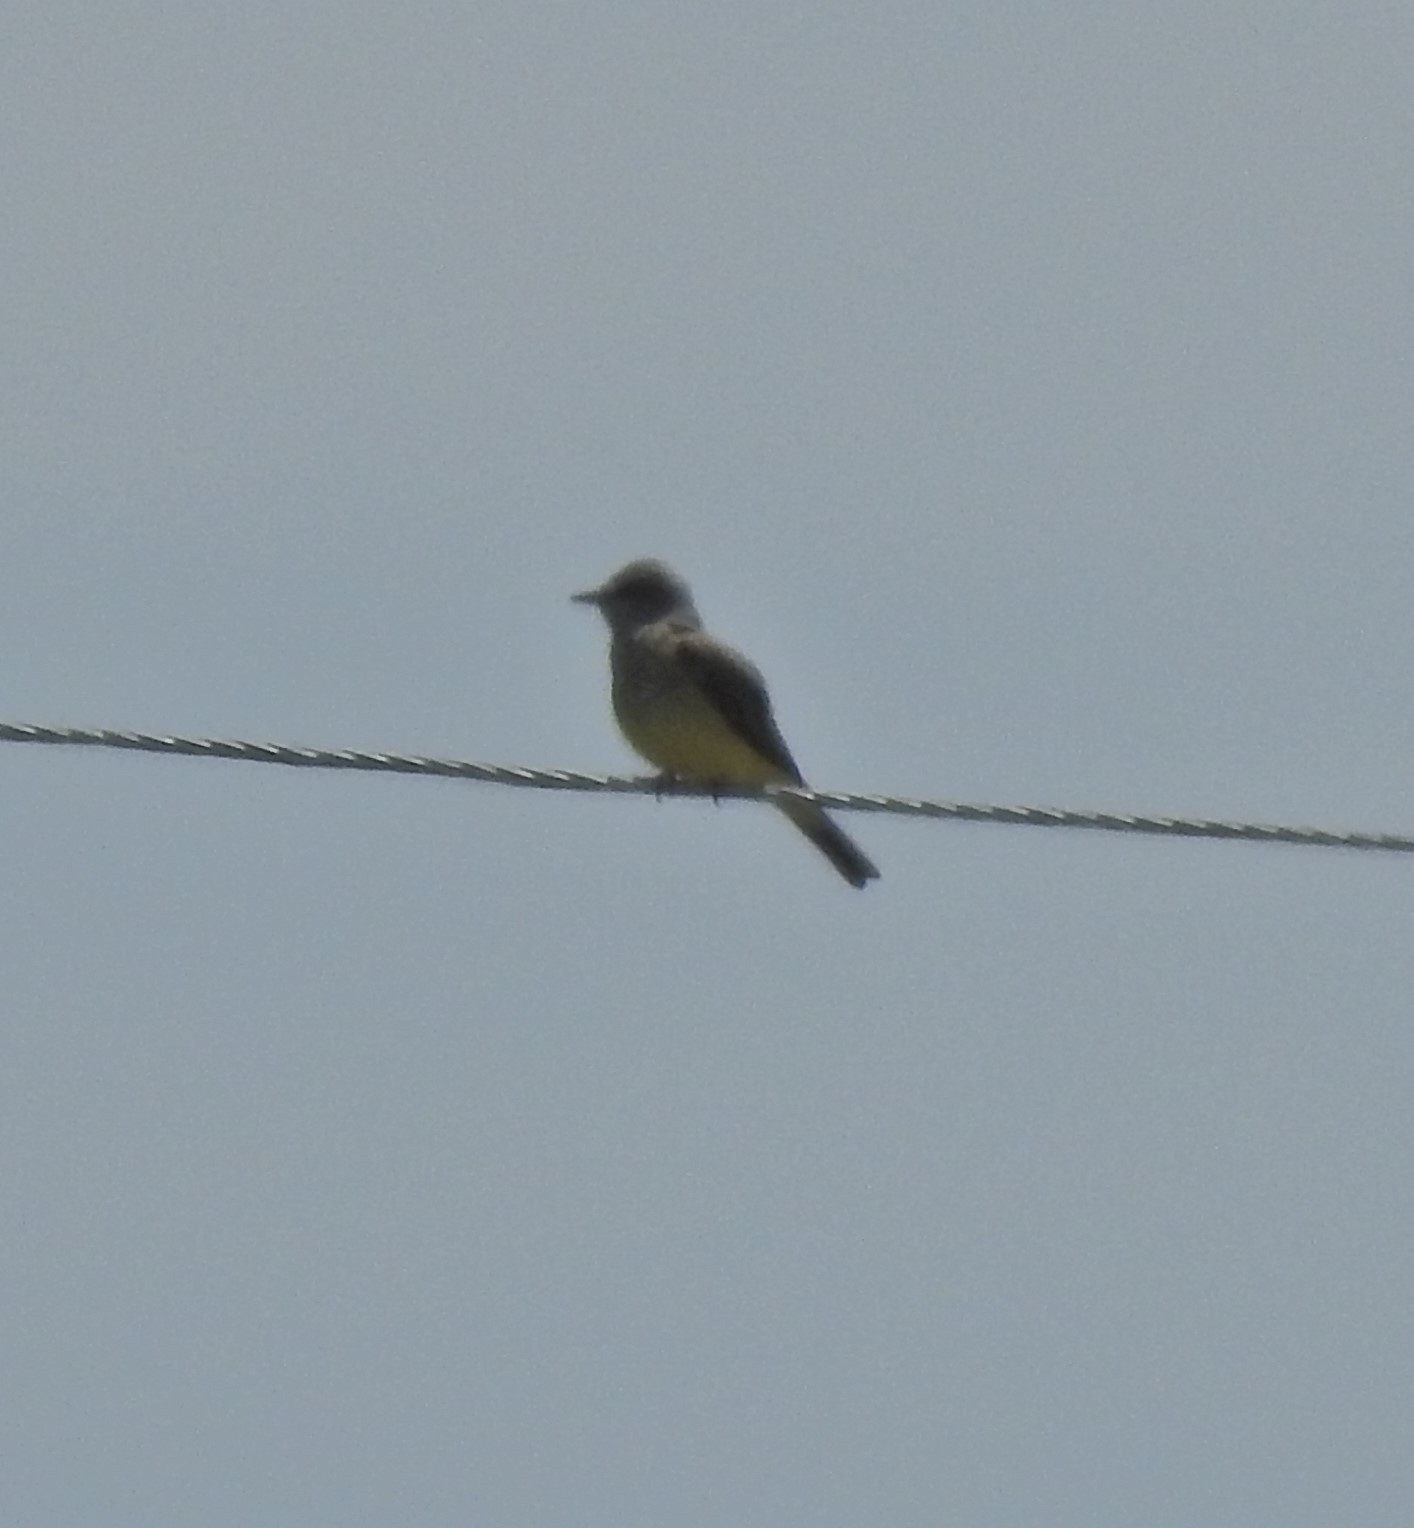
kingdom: Animalia
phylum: Chordata
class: Aves
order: Passeriformes
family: Tyrannidae
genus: Tyrannus
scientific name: Tyrannus verticalis
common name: Western kingbird
